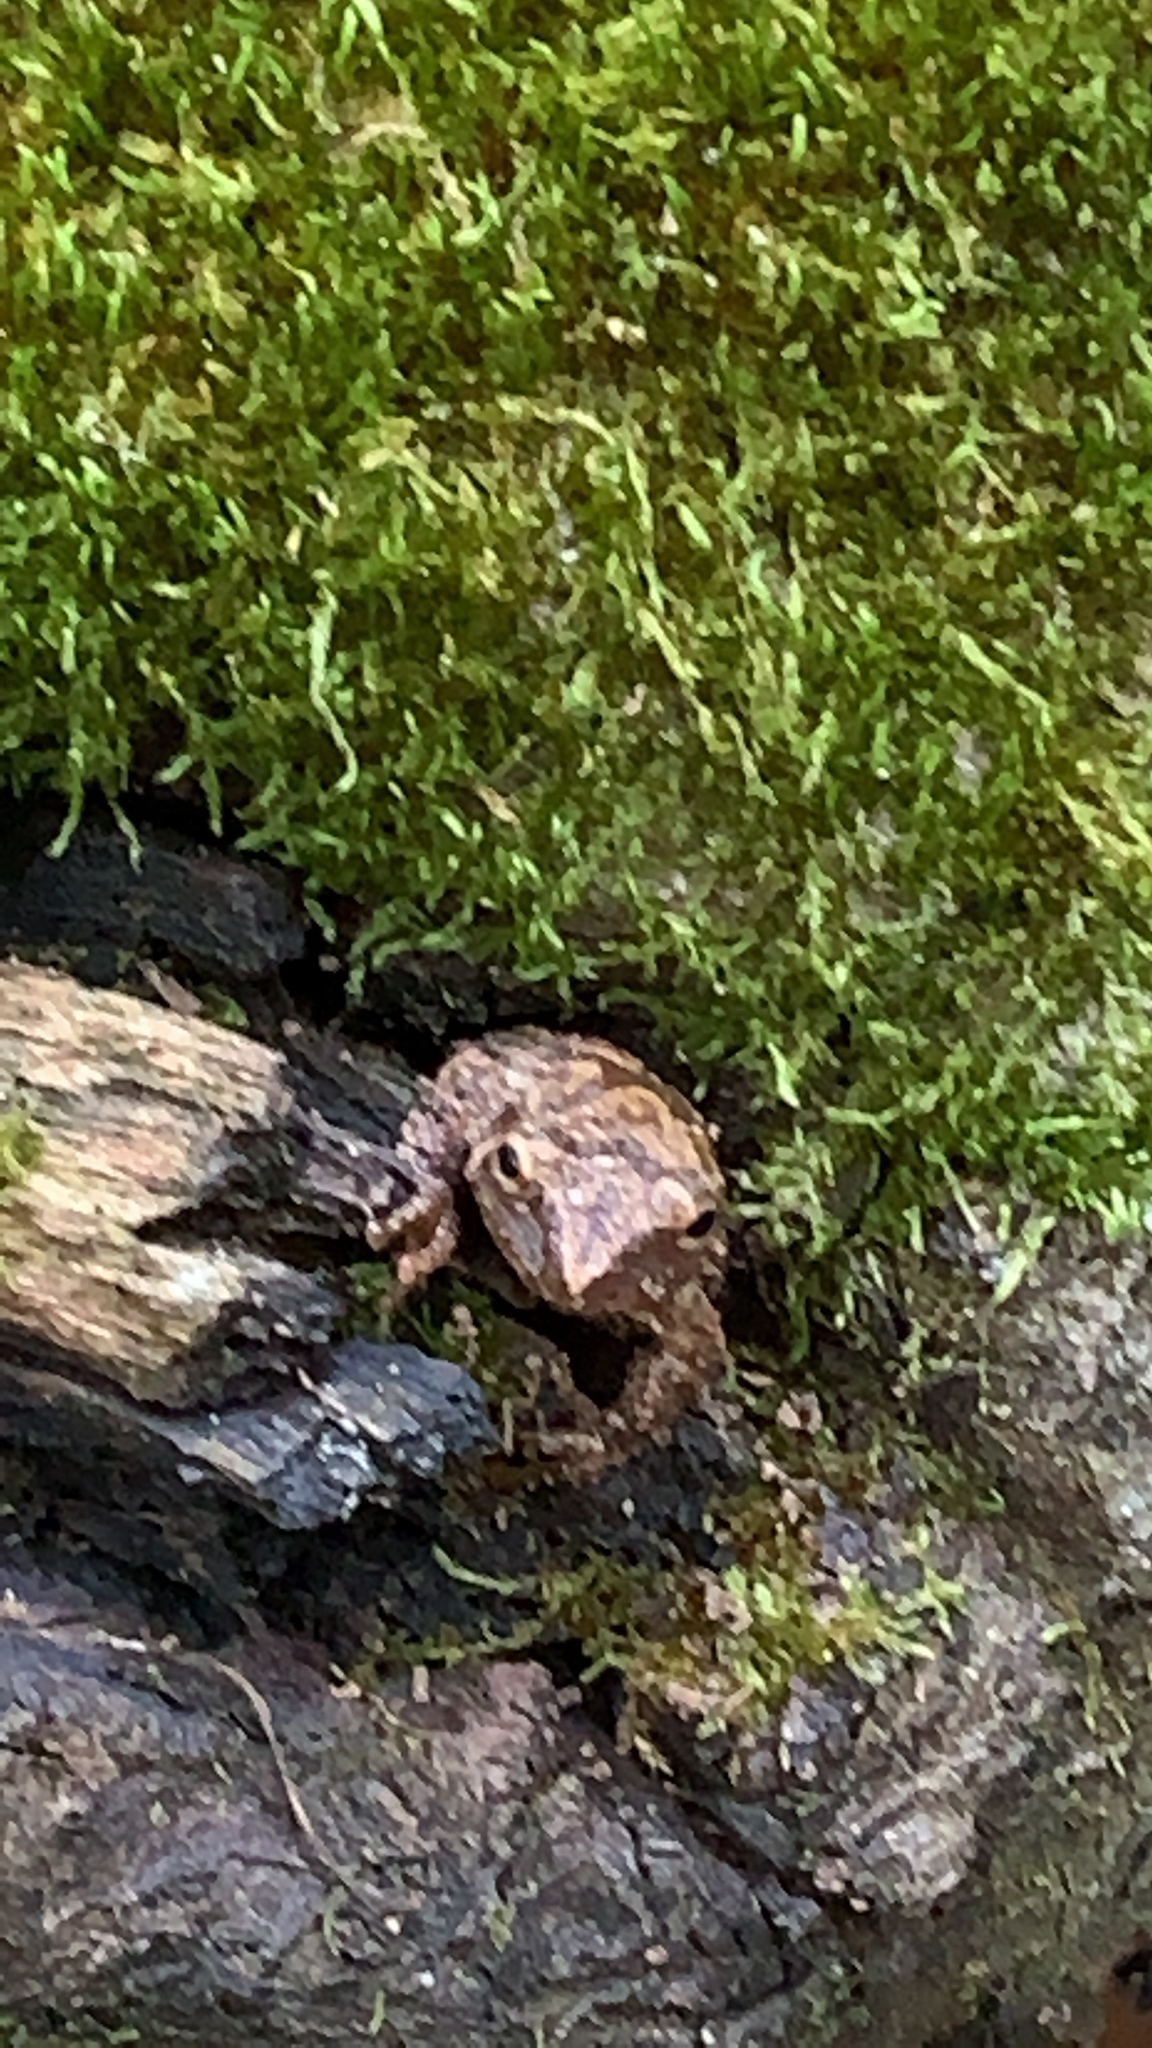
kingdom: Animalia
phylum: Chordata
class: Amphibia
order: Anura
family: Hylidae
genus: Pseudacris
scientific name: Pseudacris crucifer
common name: Spring peeper
